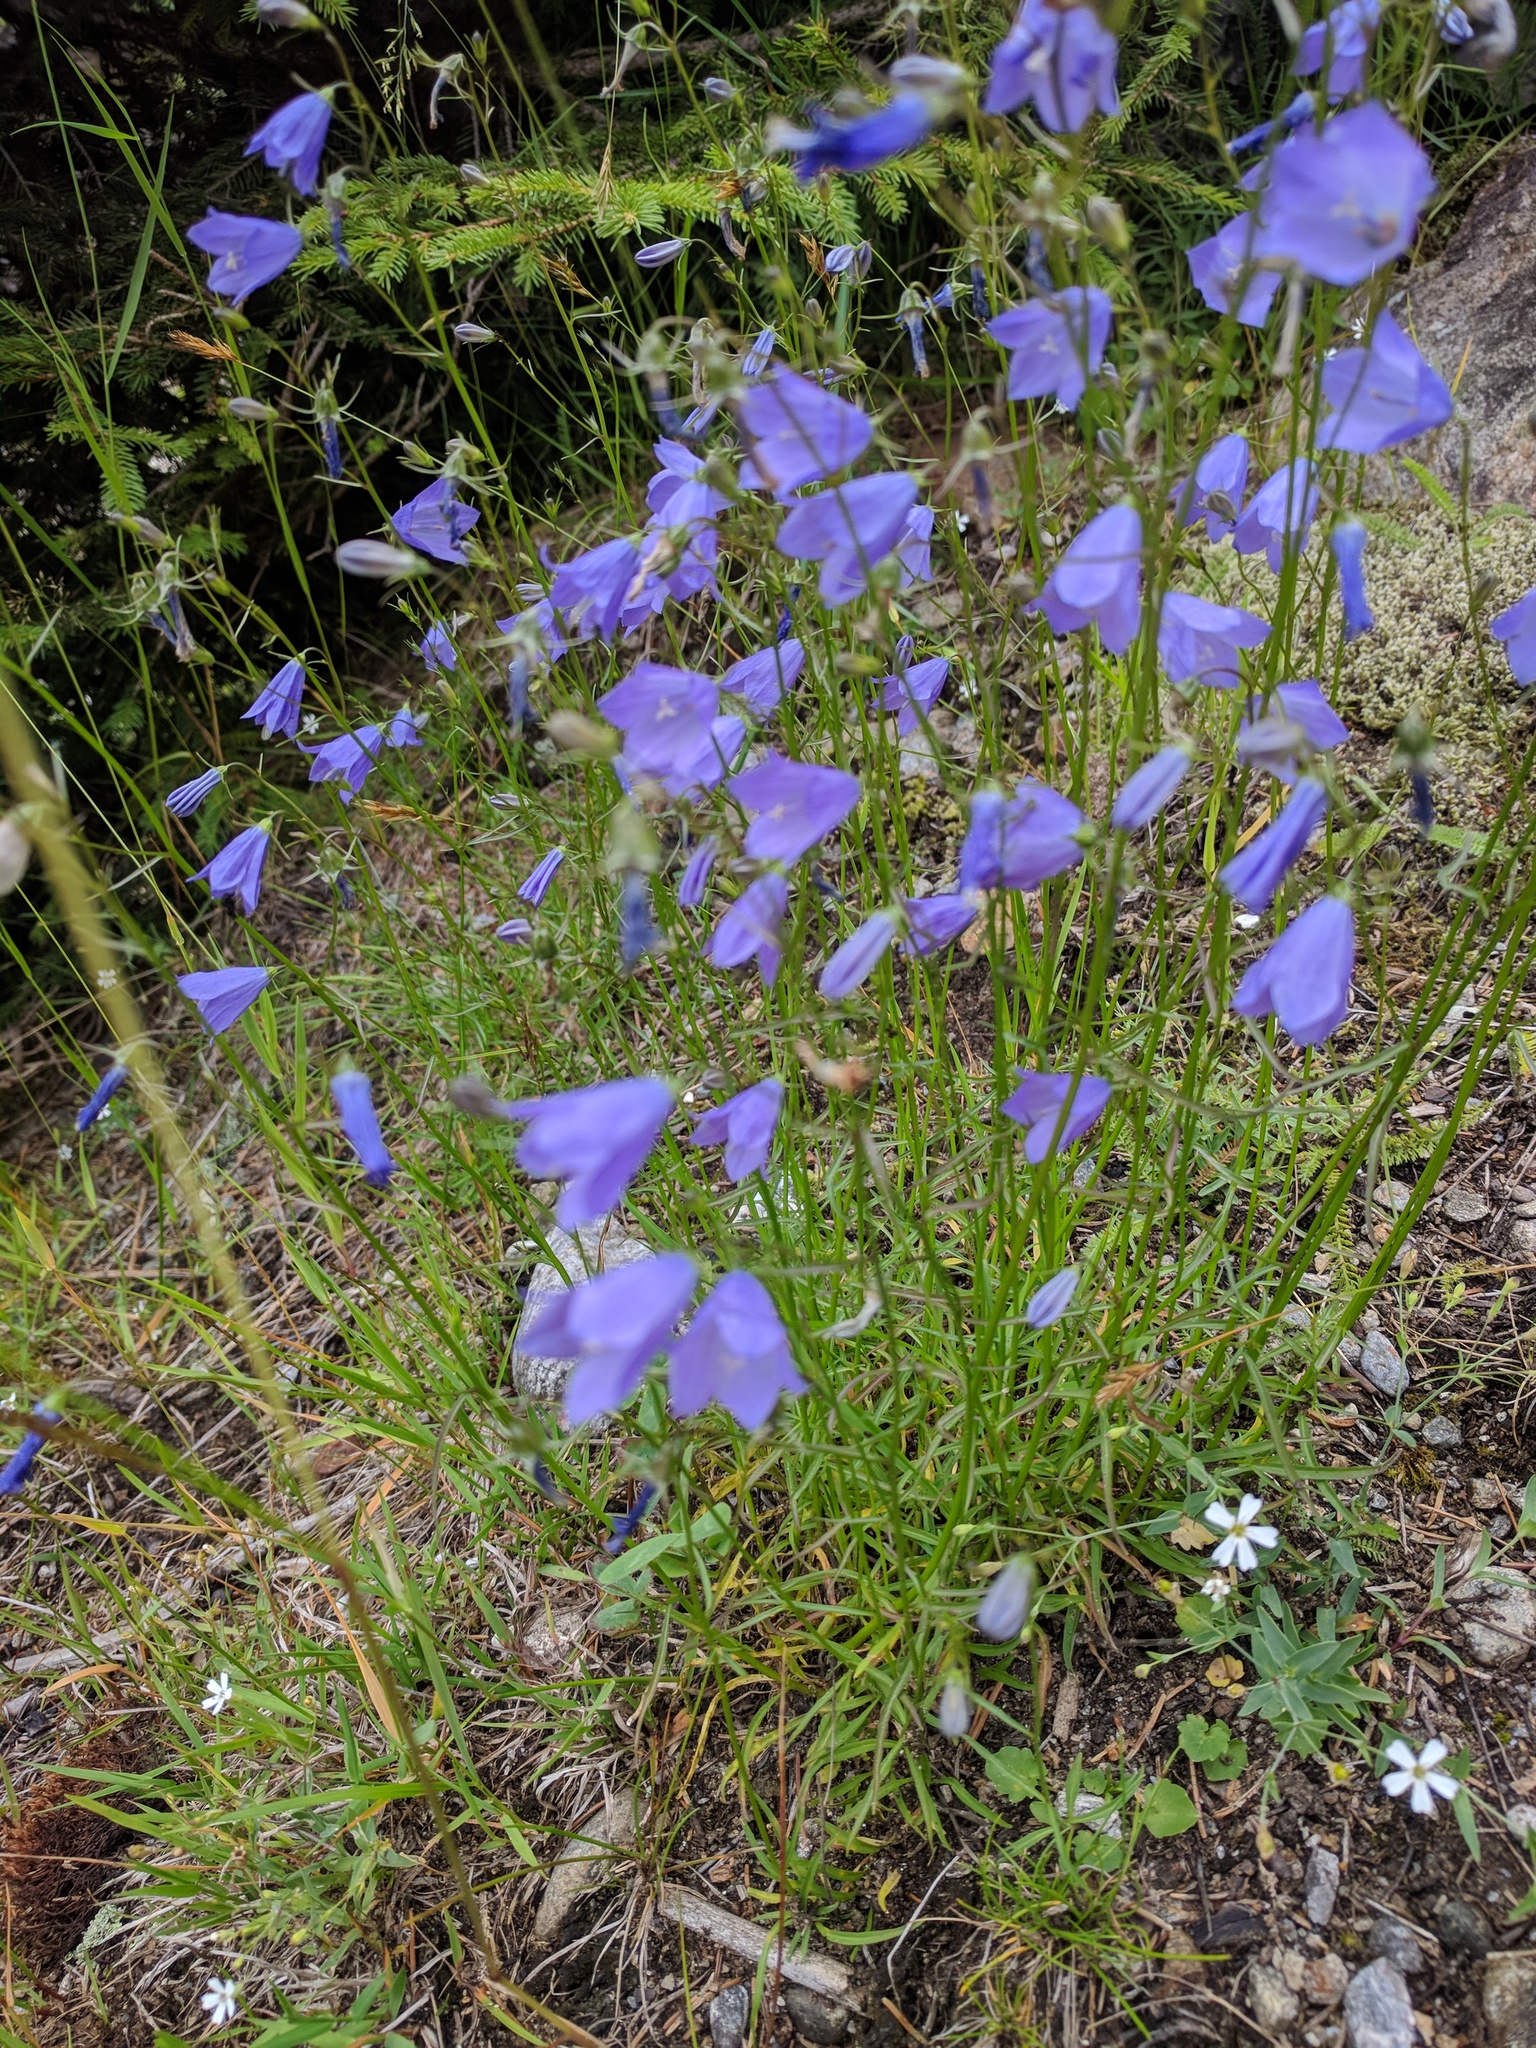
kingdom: Plantae
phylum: Tracheophyta
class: Magnoliopsida
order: Asterales
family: Campanulaceae
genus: Campanula
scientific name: Campanula rotundifolia
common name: Harebell
